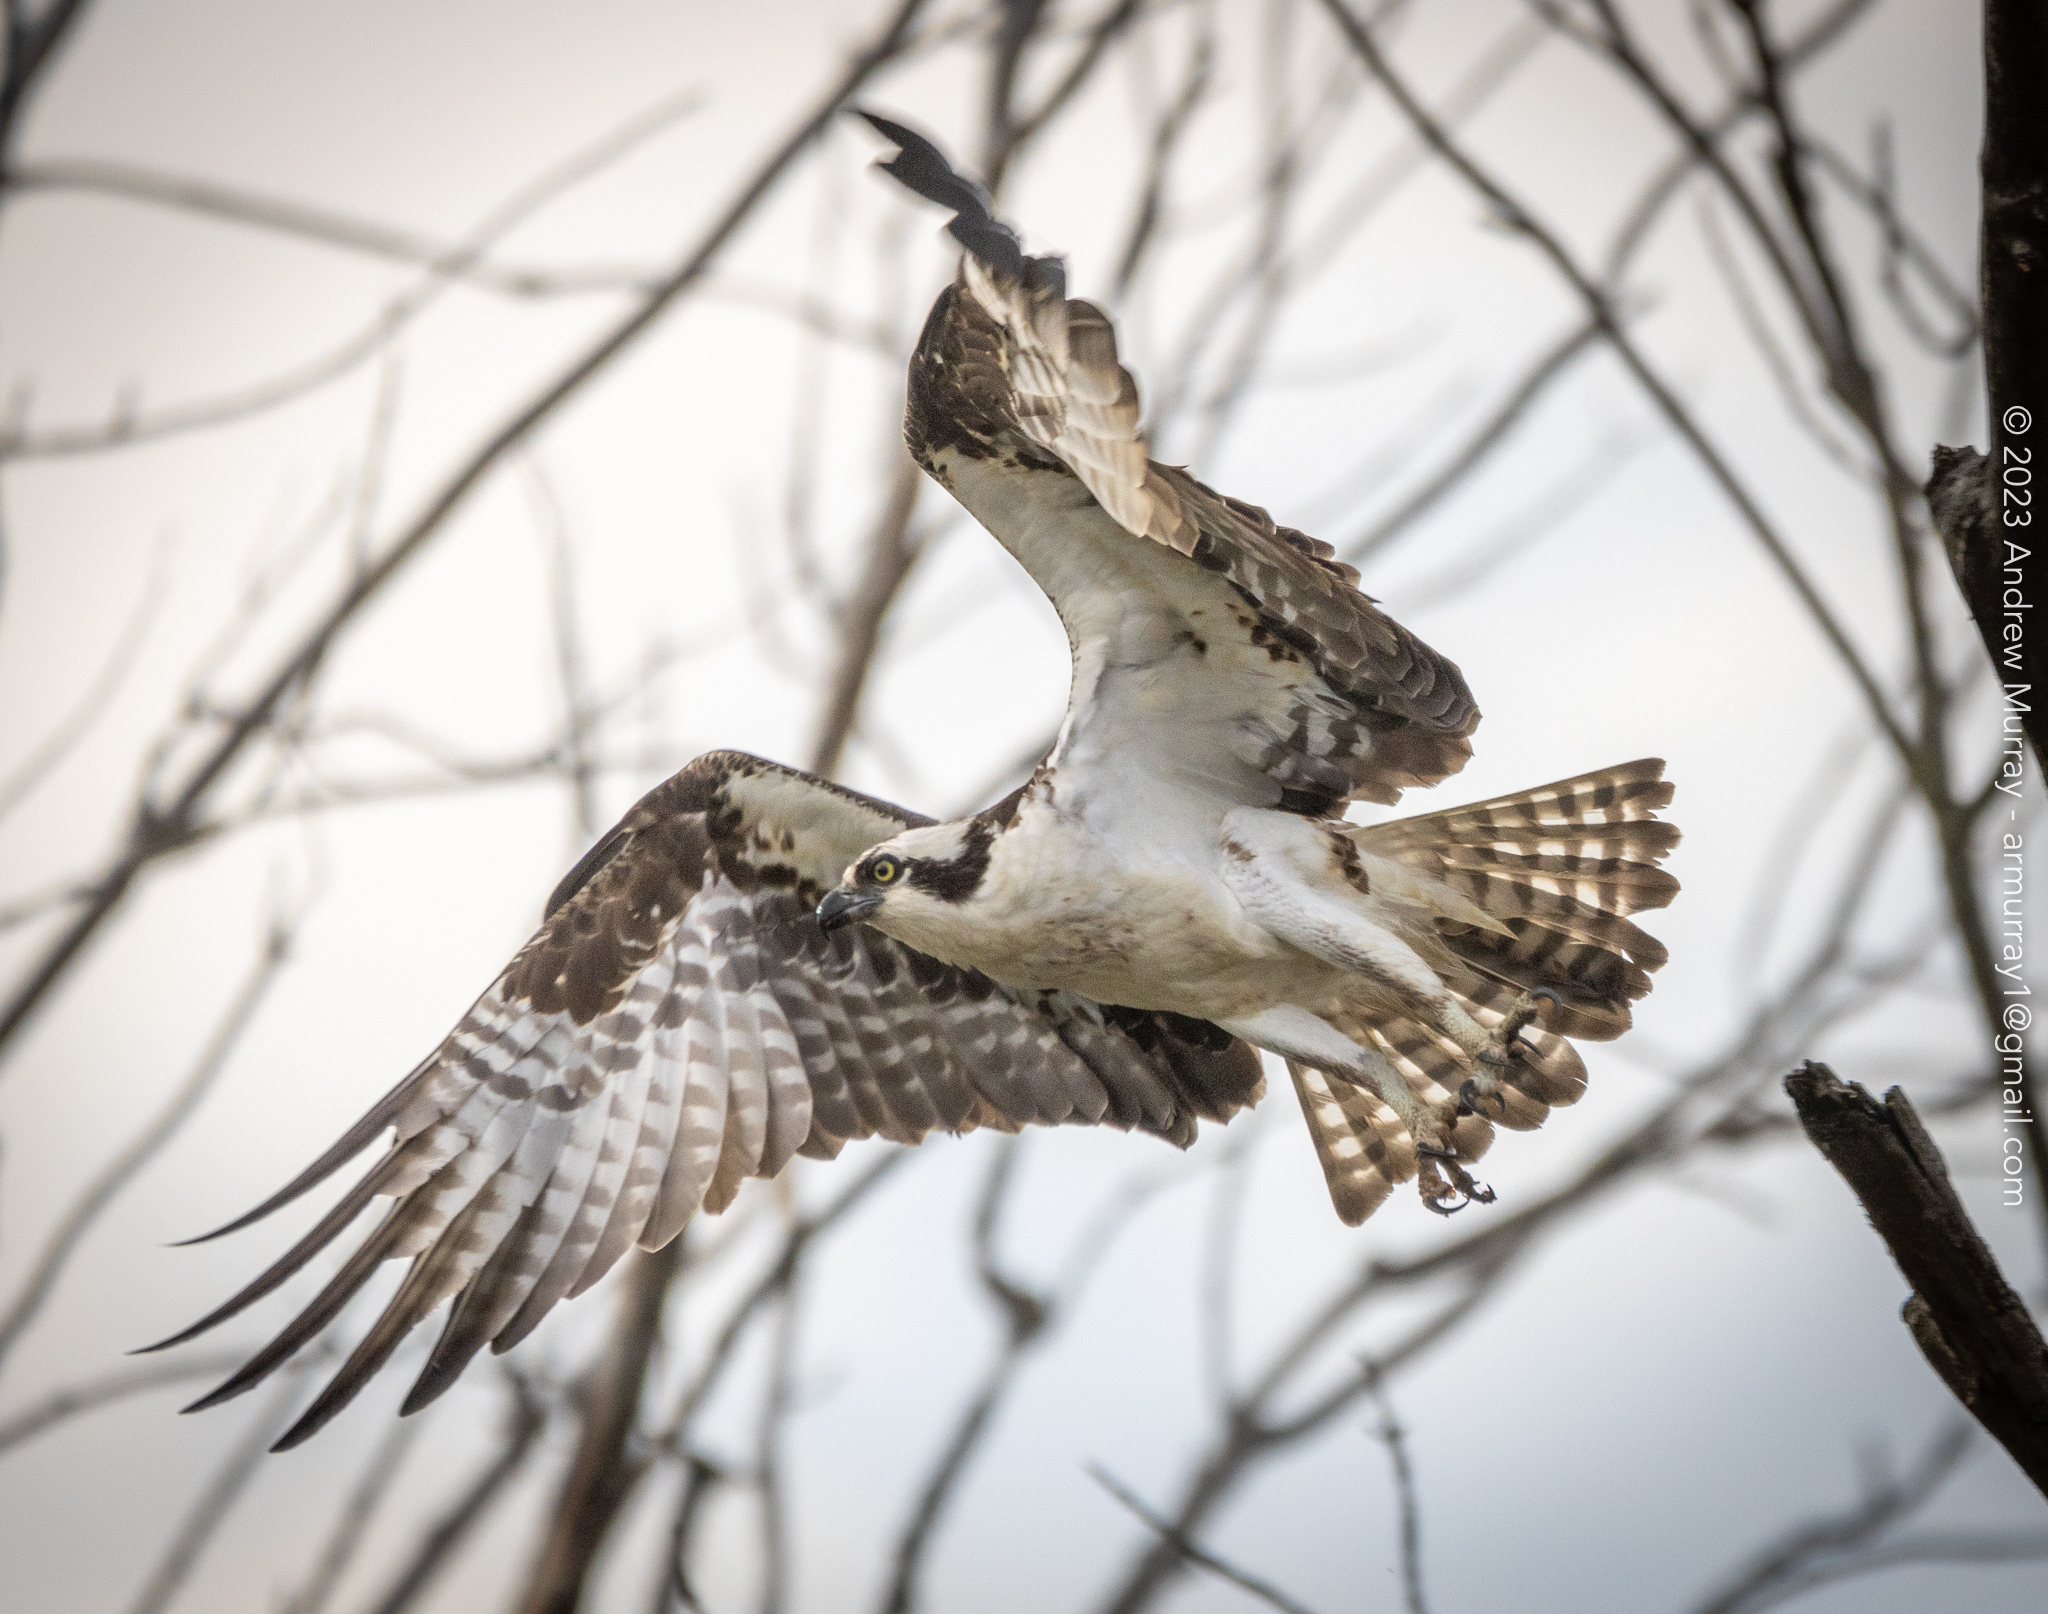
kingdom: Animalia
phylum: Chordata
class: Aves
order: Accipitriformes
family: Pandionidae
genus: Pandion
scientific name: Pandion haliaetus
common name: Osprey
